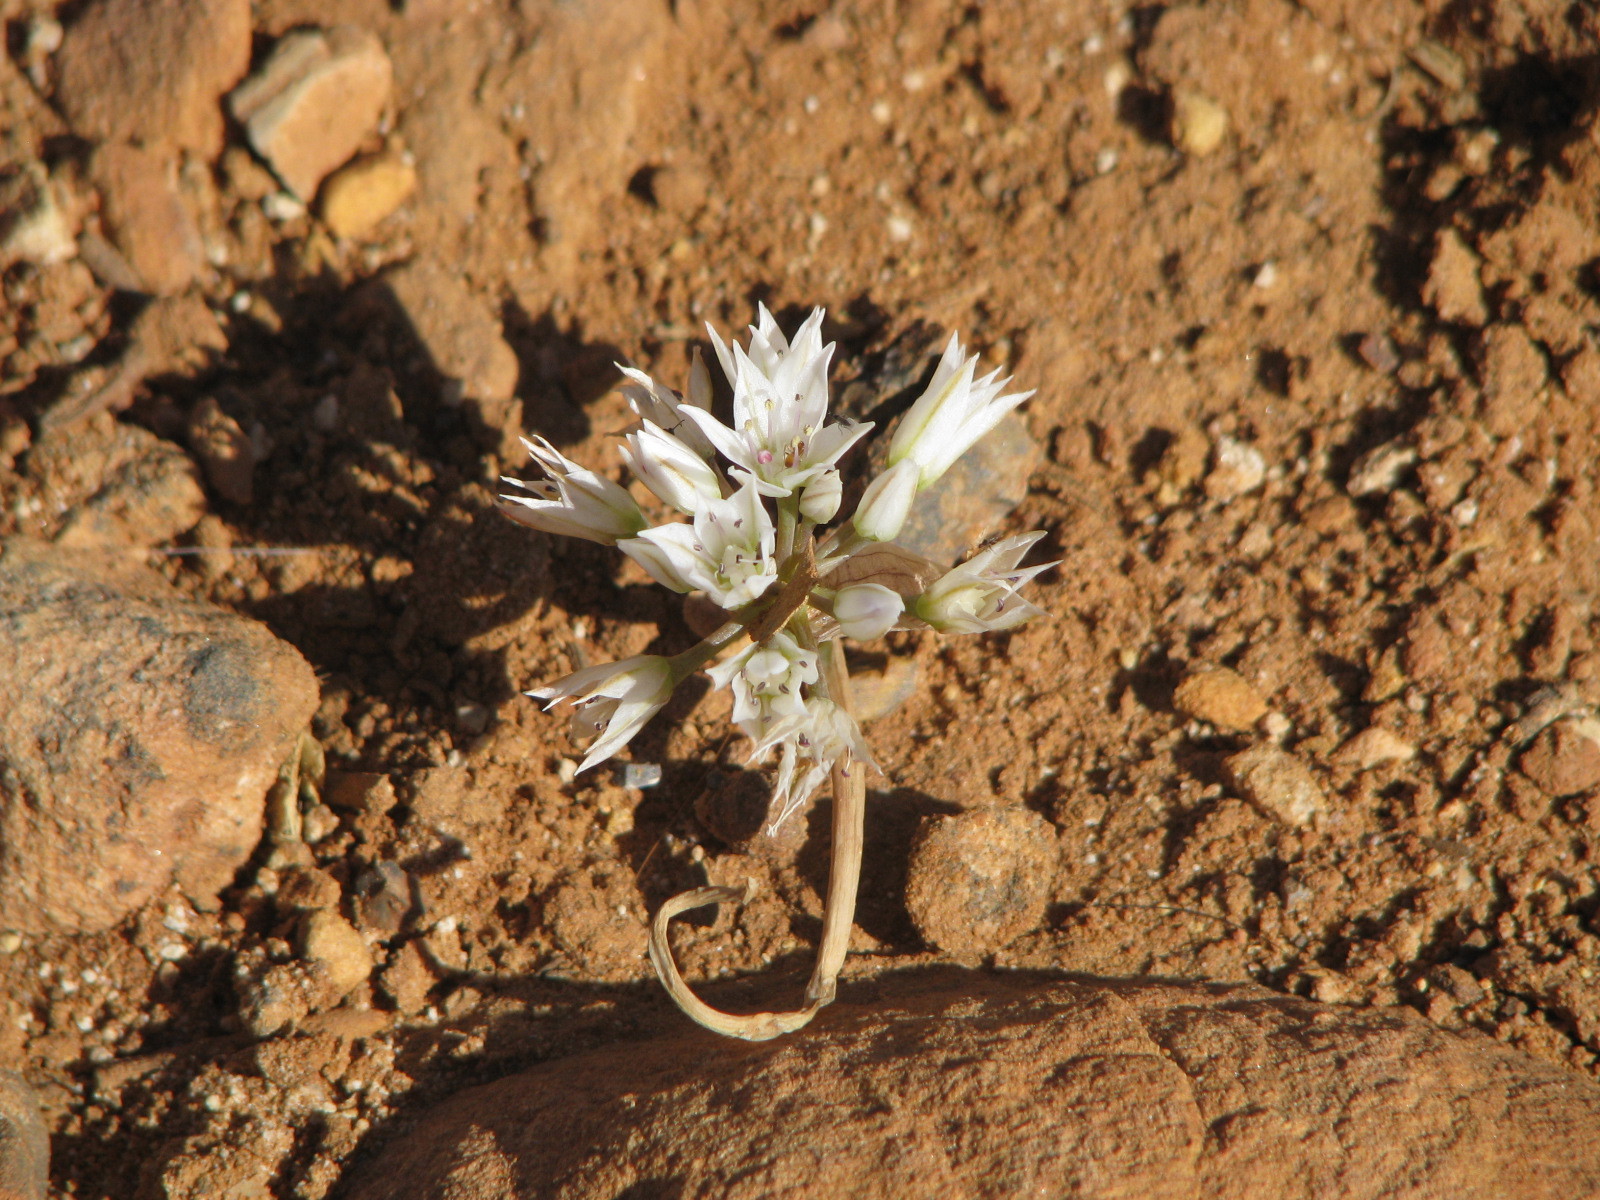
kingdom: Plantae
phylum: Tracheophyta
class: Liliopsida
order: Asparagales
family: Amaryllidaceae
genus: Allium
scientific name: Allium nevadense
